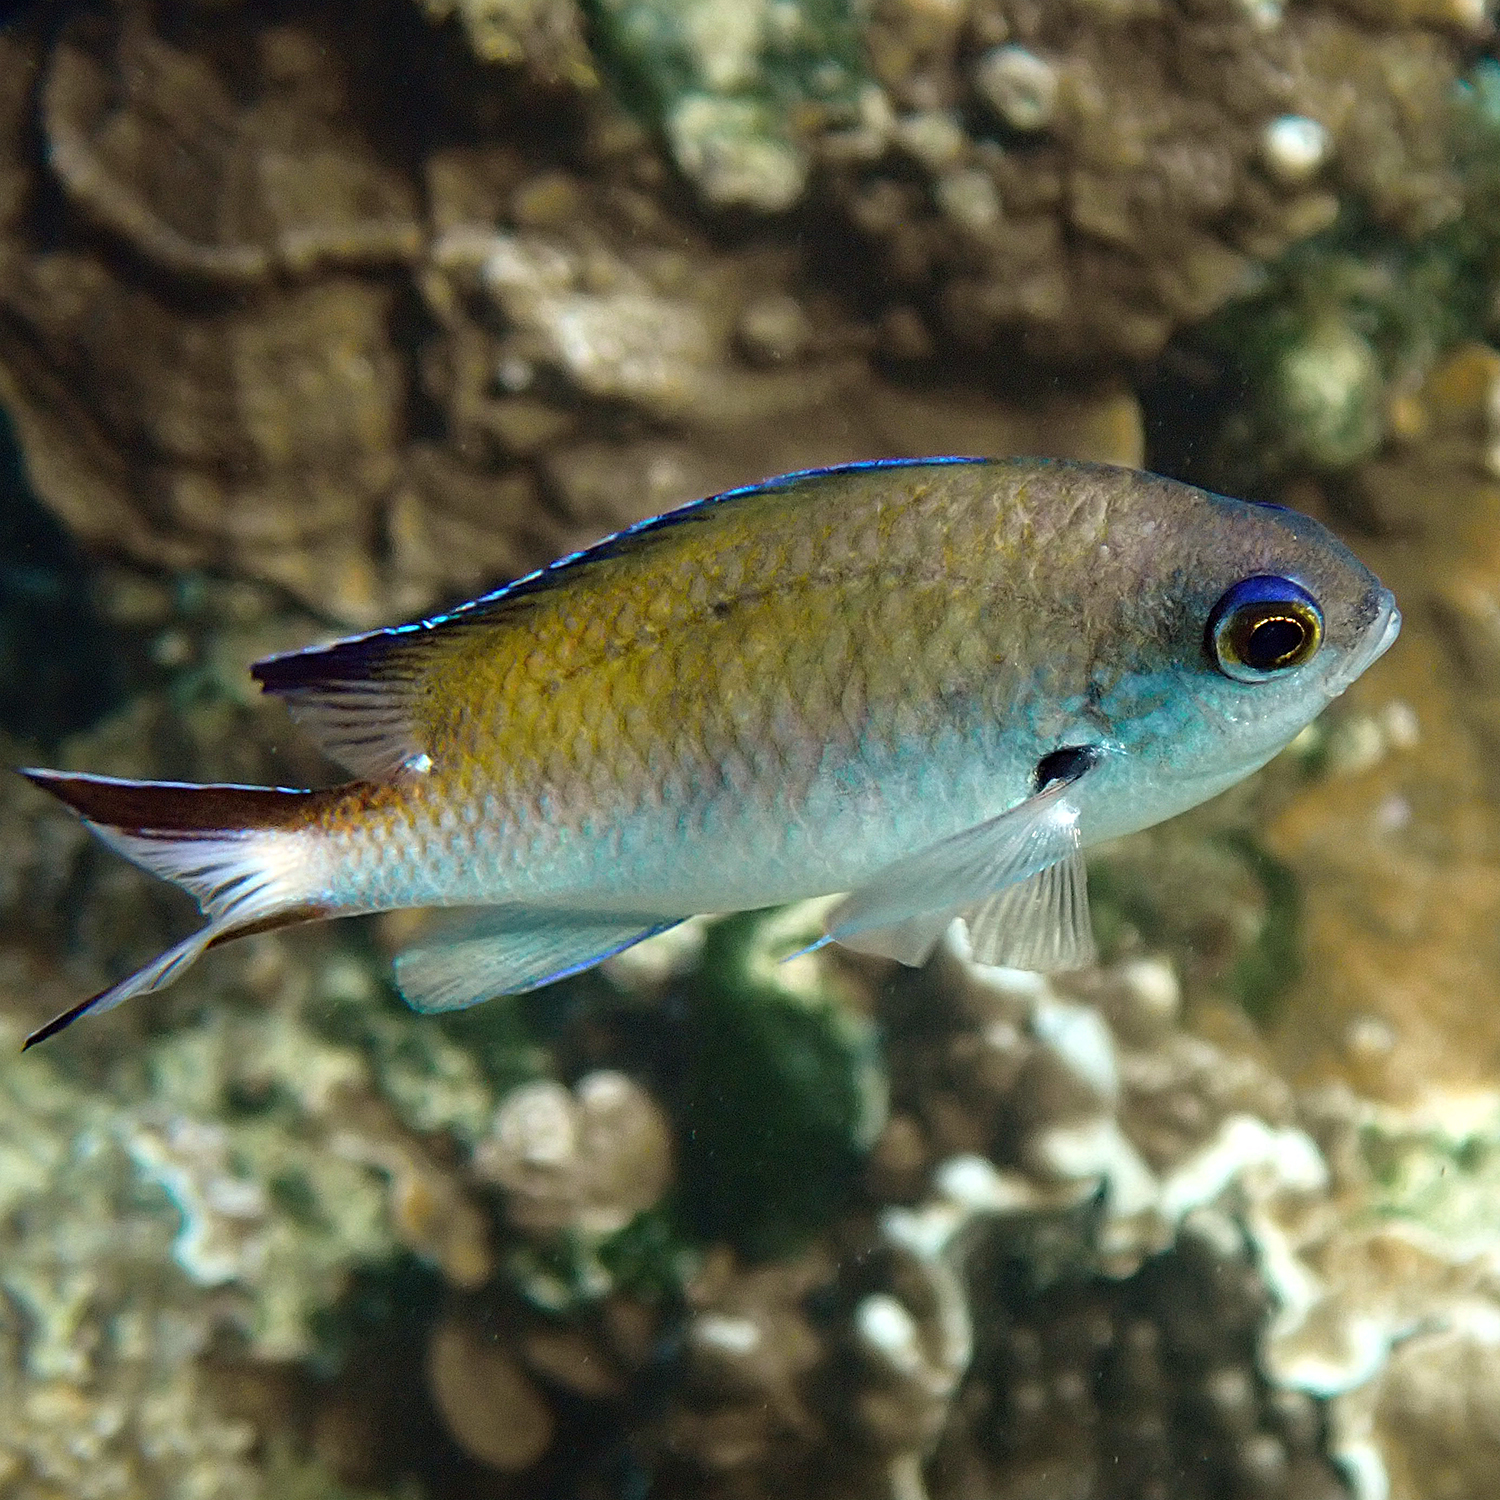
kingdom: Animalia
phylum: Chordata
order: Perciformes
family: Pomacentridae
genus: Chromis
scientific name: Chromis norfolkensis
